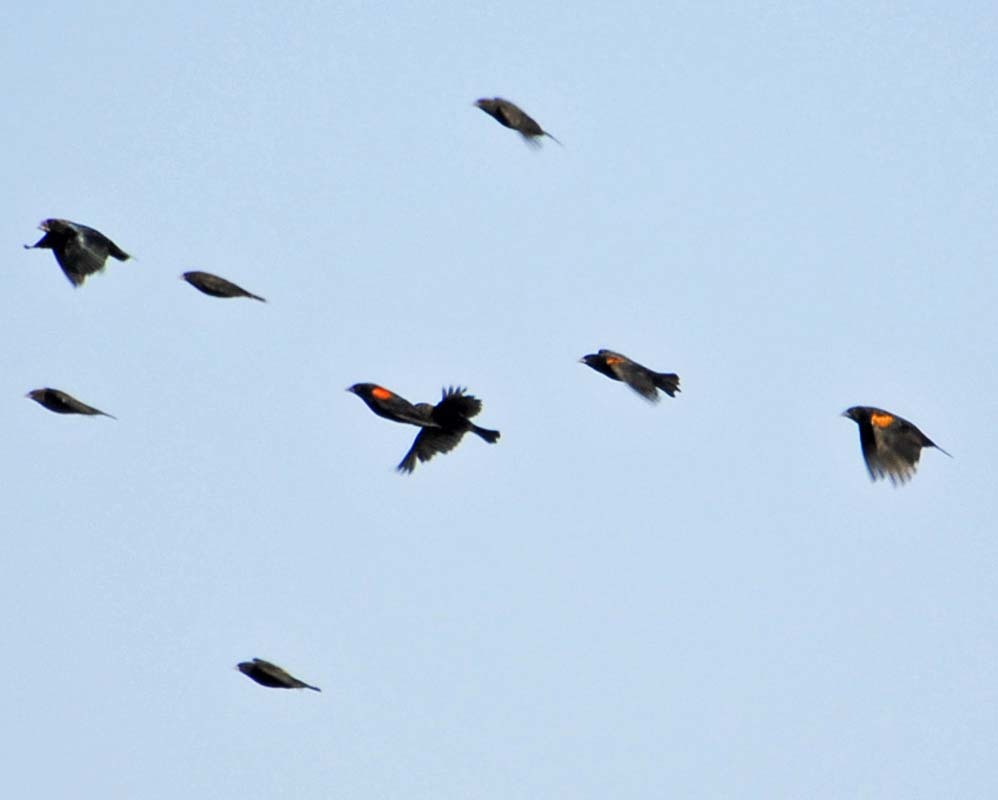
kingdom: Animalia
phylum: Chordata
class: Aves
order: Passeriformes
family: Icteridae
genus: Agelaius
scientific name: Agelaius phoeniceus
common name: Red-winged blackbird
